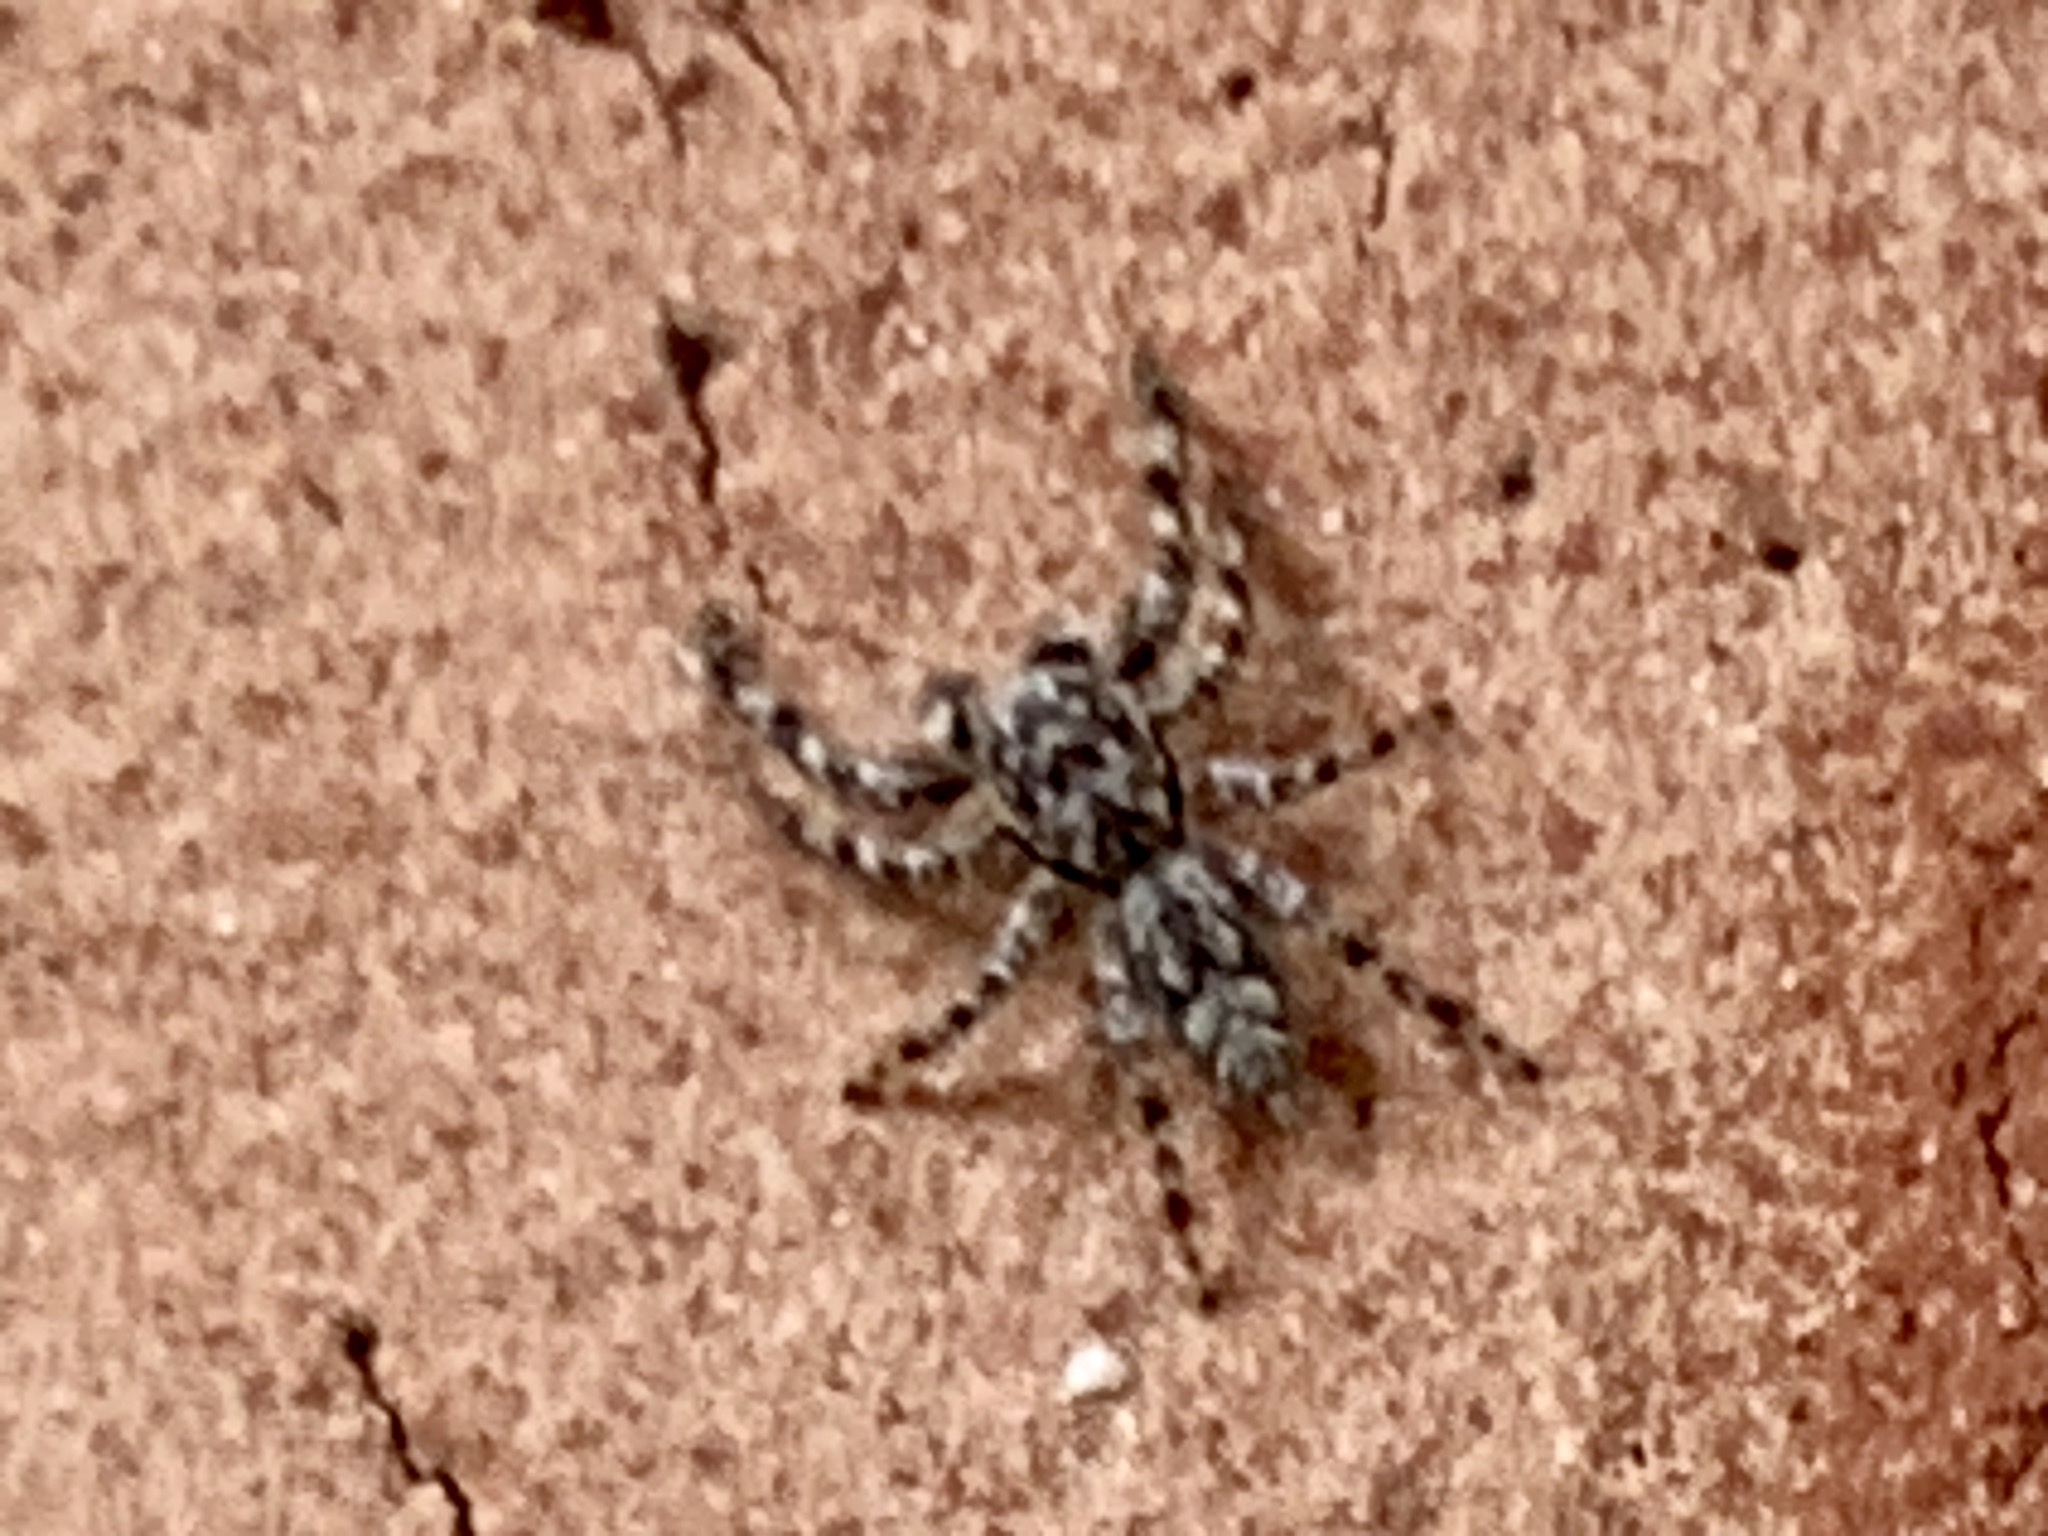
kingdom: Animalia
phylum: Arthropoda
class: Arachnida
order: Araneae
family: Salticidae
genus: Platycryptus
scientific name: Platycryptus undatus
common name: Tan jumping spider
